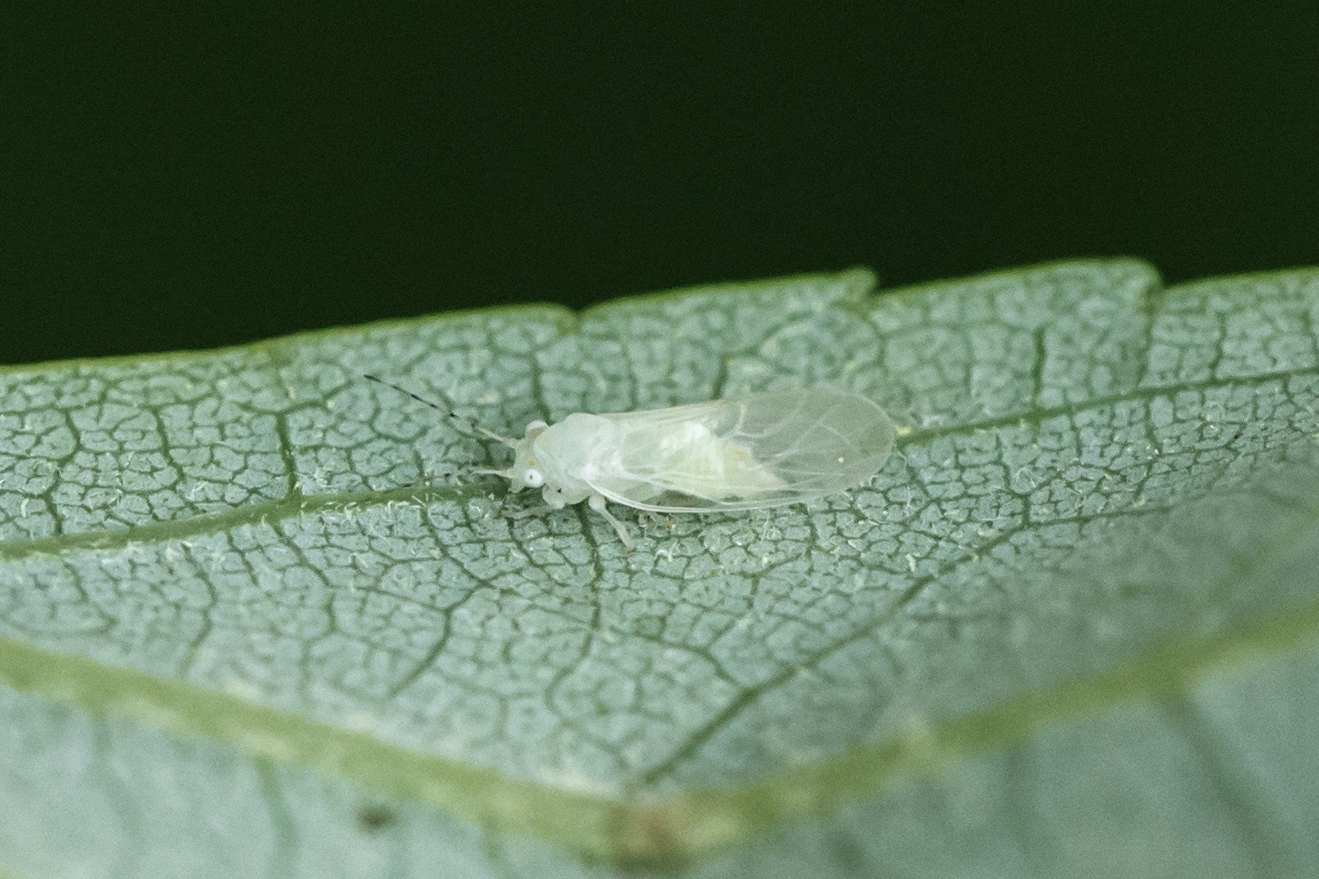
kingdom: Animalia
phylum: Arthropoda
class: Insecta
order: Hemiptera
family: Psyllidae
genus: Cacopsylla
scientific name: Cacopsylla annulata
